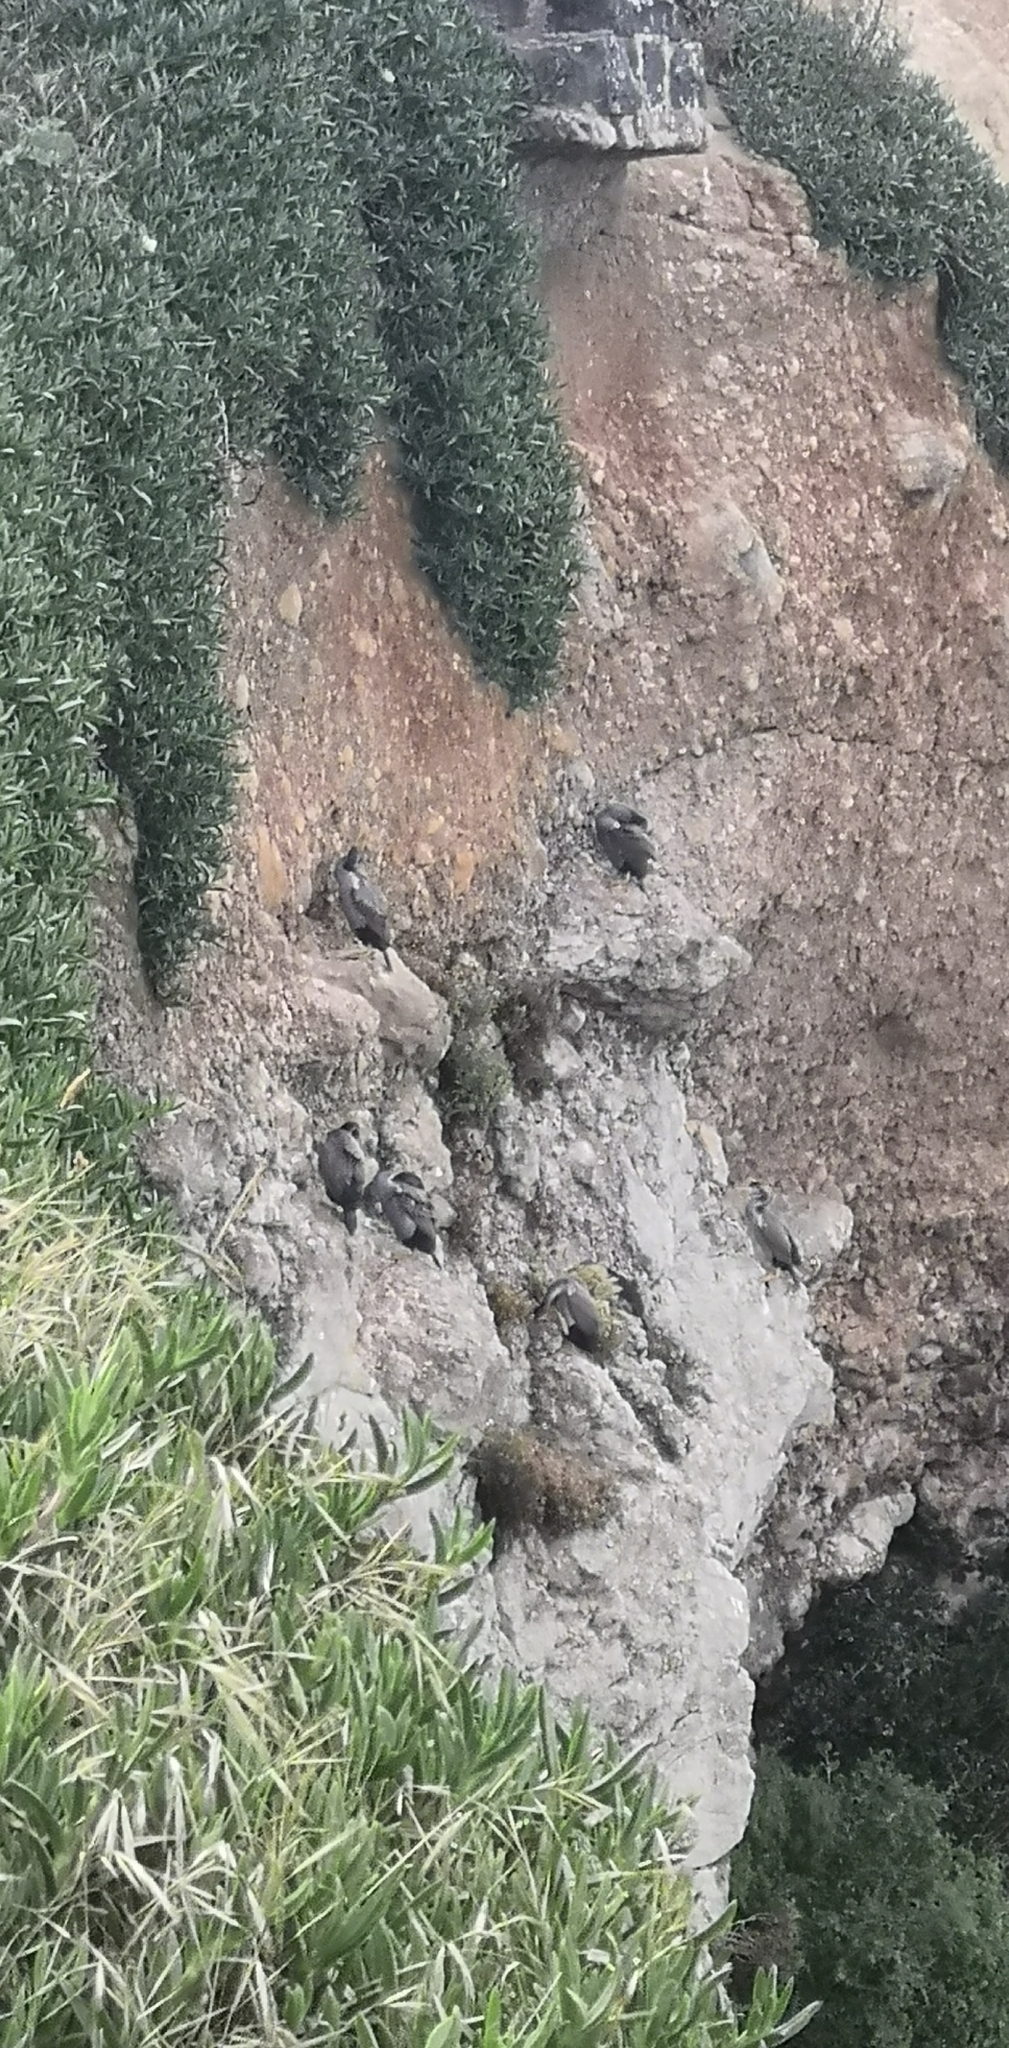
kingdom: Animalia
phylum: Chordata
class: Aves
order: Suliformes
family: Phalacrocoracidae
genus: Phalacrocorax
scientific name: Phalacrocorax punctatus
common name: Spotted shag
